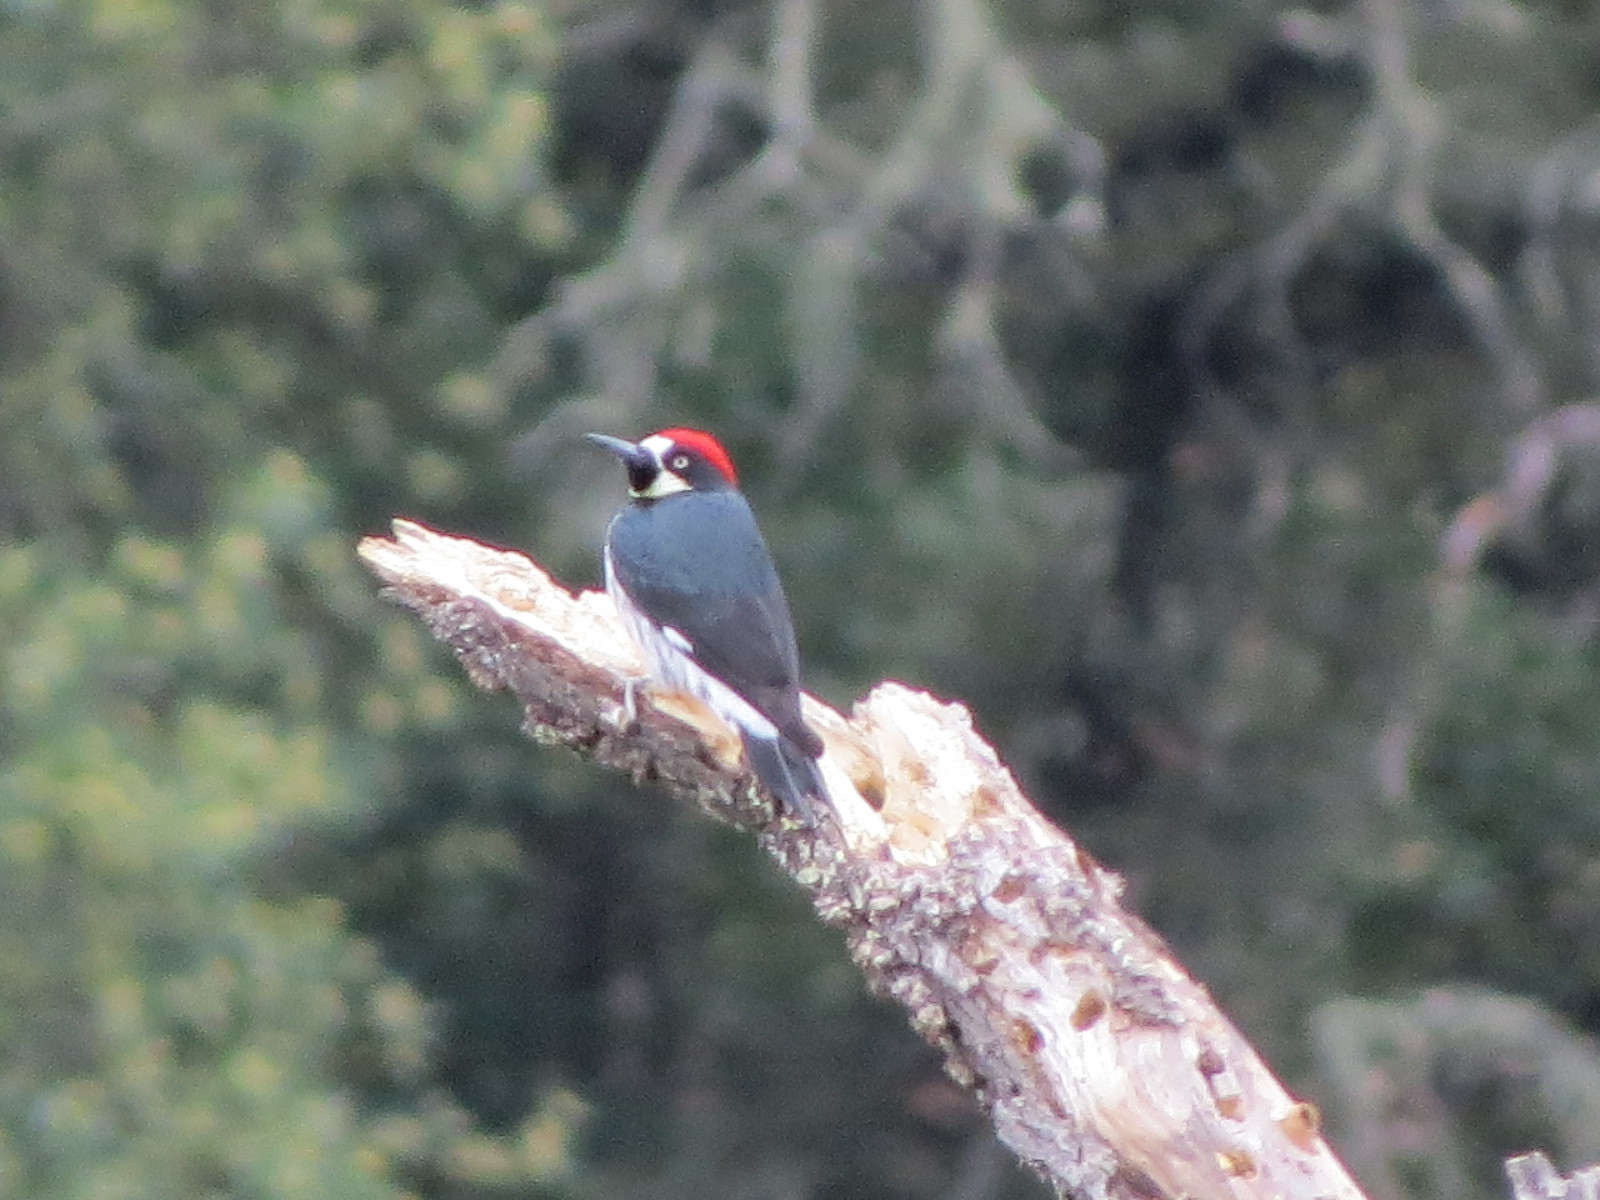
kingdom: Animalia
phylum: Chordata
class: Aves
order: Piciformes
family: Picidae
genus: Melanerpes
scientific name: Melanerpes formicivorus
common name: Acorn woodpecker
